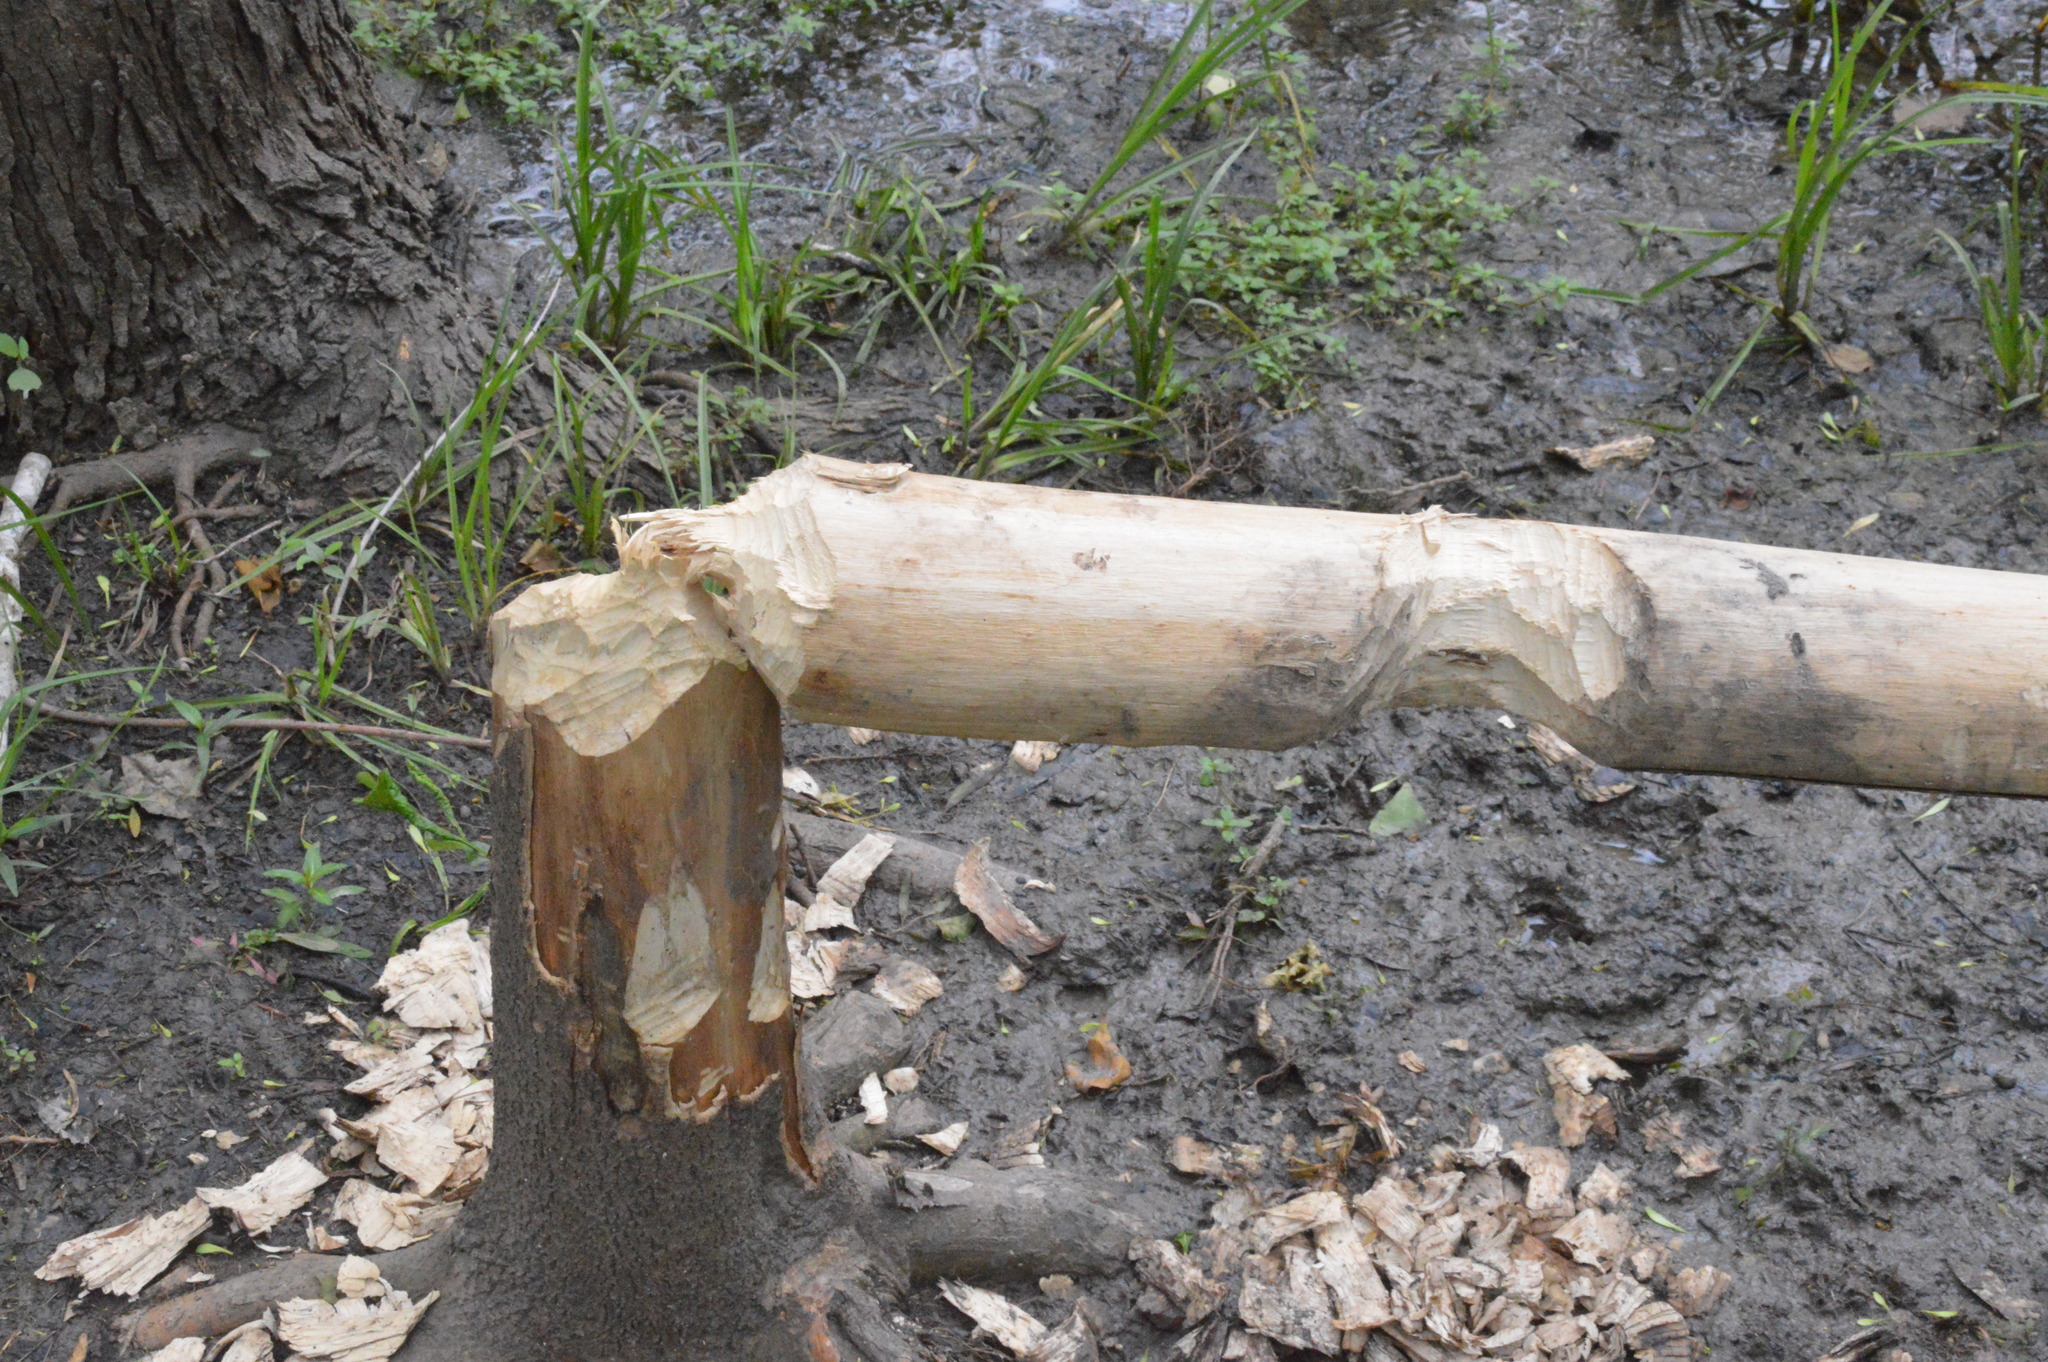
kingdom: Animalia
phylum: Chordata
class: Mammalia
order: Rodentia
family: Castoridae
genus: Castor
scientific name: Castor canadensis
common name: American beaver
